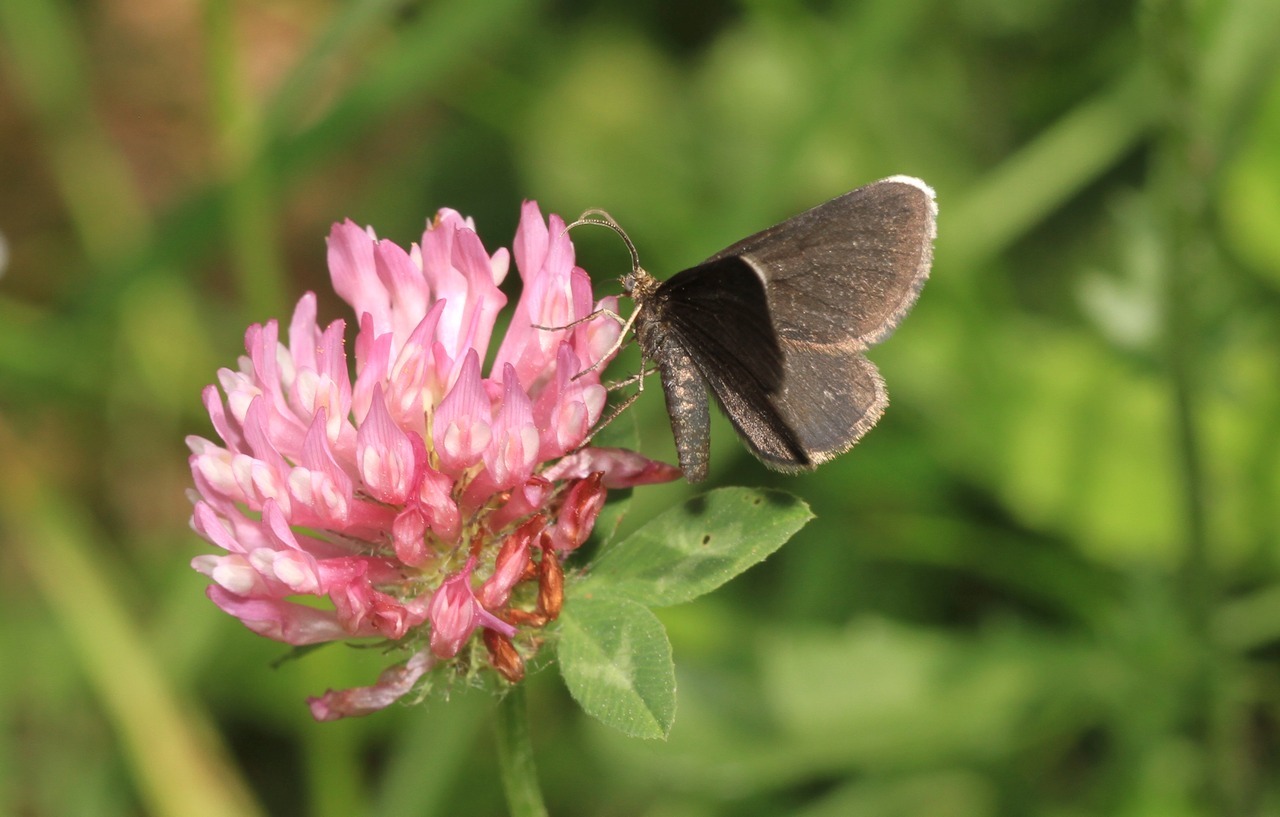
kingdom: Animalia
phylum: Arthropoda
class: Insecta
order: Lepidoptera
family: Geometridae
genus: Odezia
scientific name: Odezia atrata
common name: Chimney sweeper
